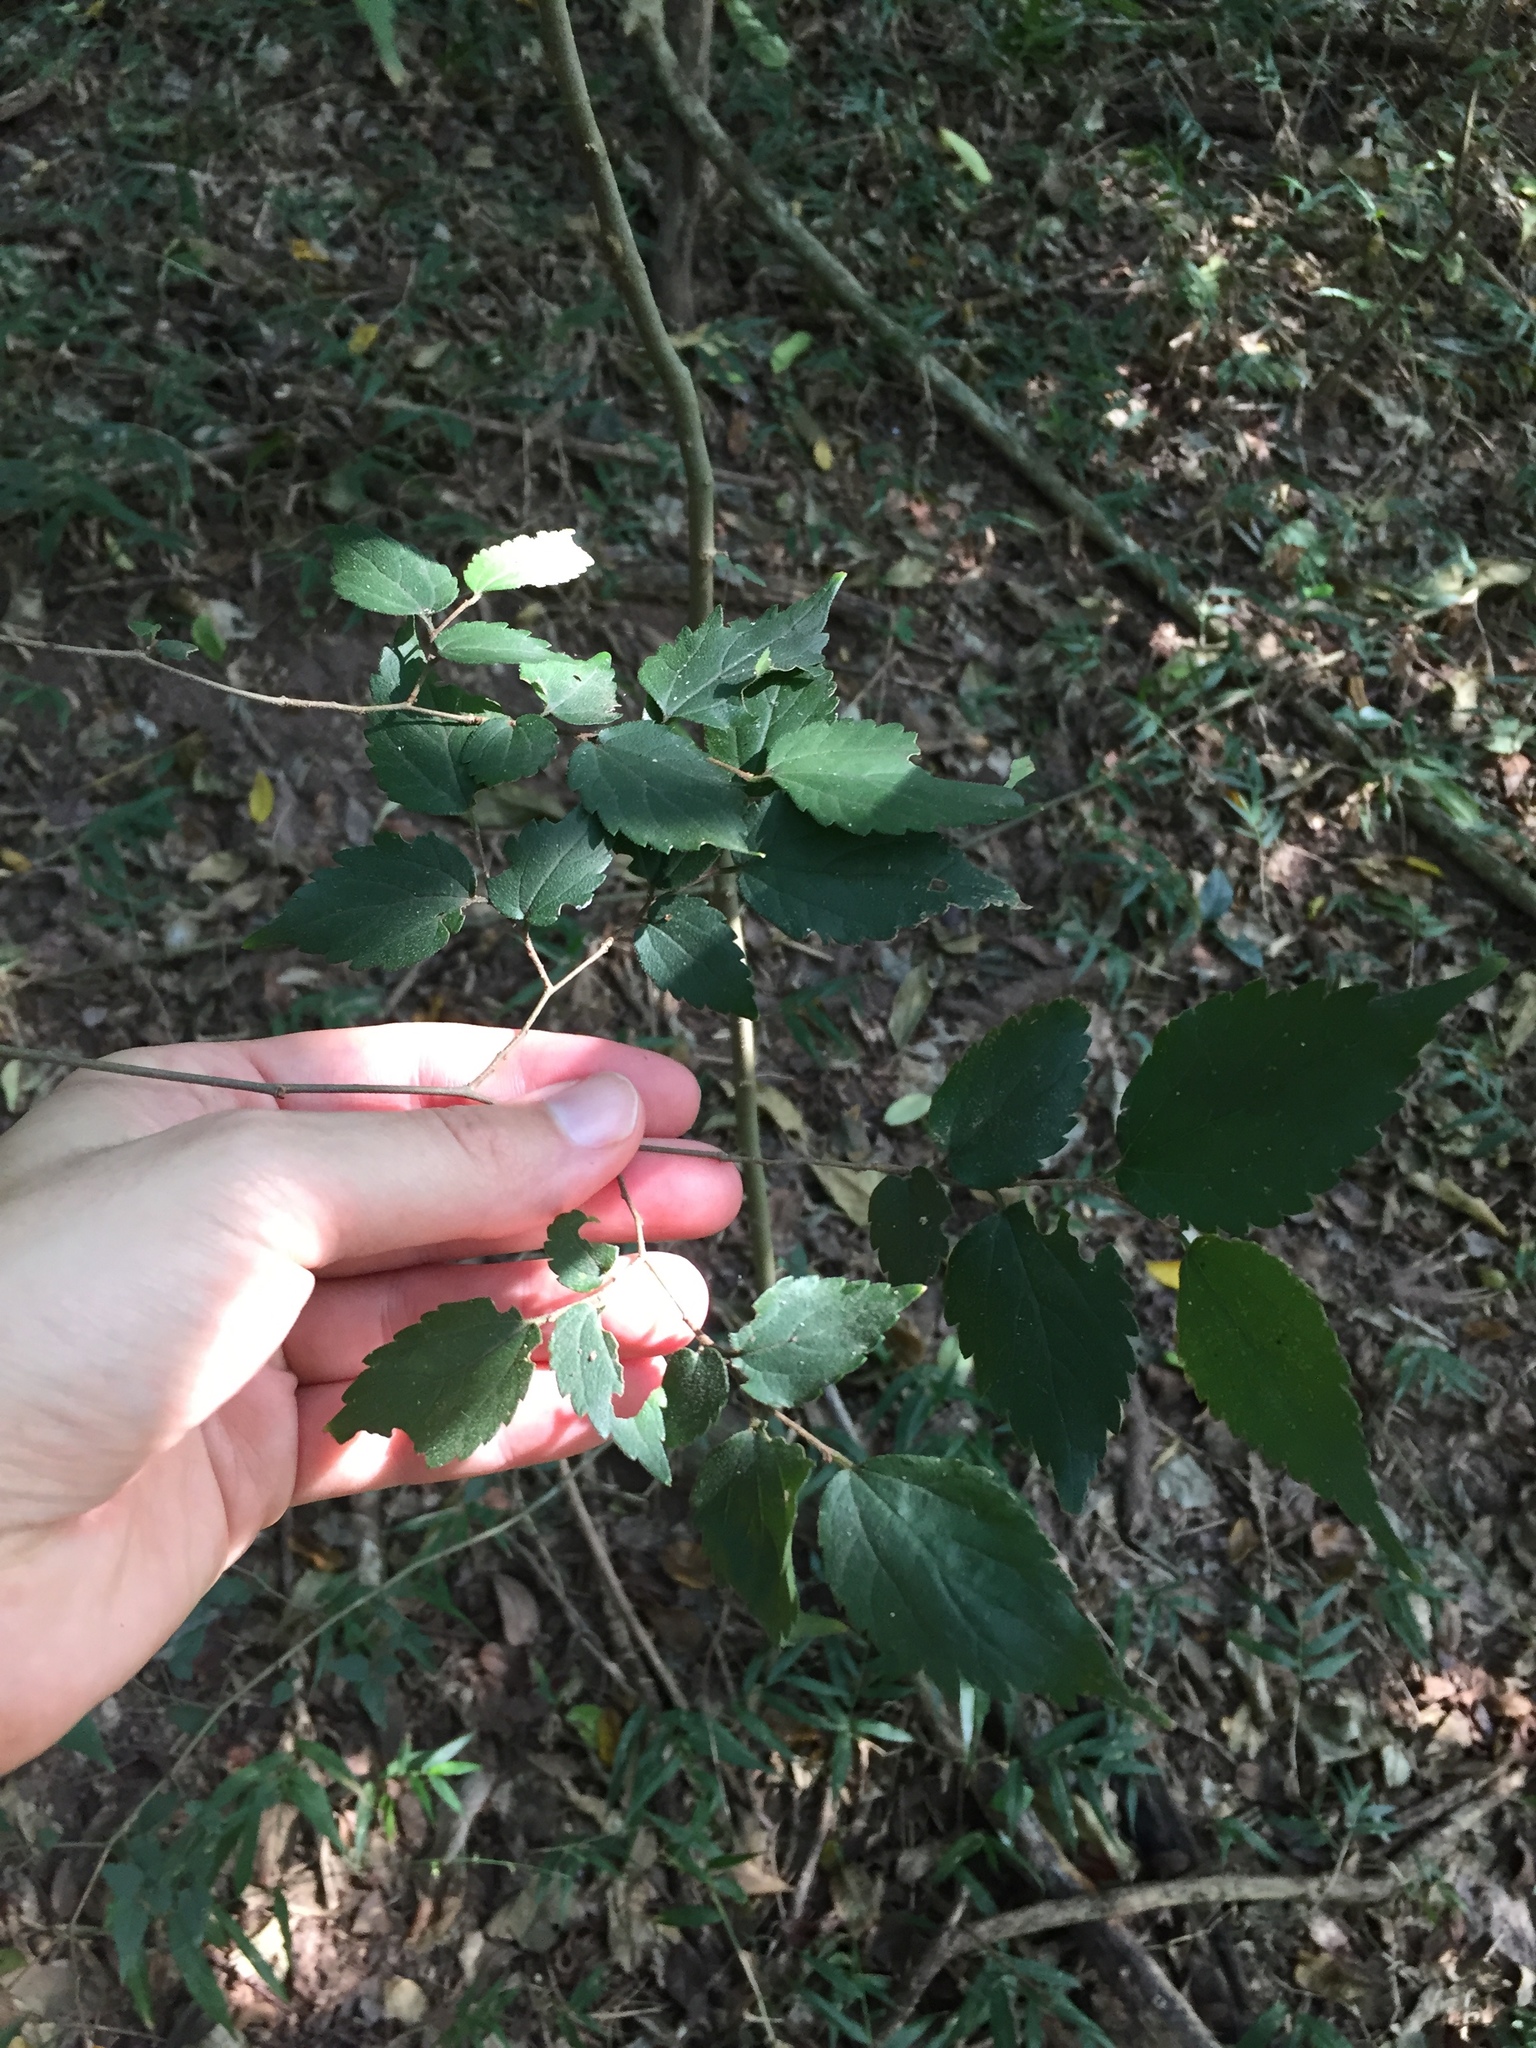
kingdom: Plantae
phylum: Tracheophyta
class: Magnoliopsida
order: Rosales
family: Cannabaceae
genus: Celtis
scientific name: Celtis africana
